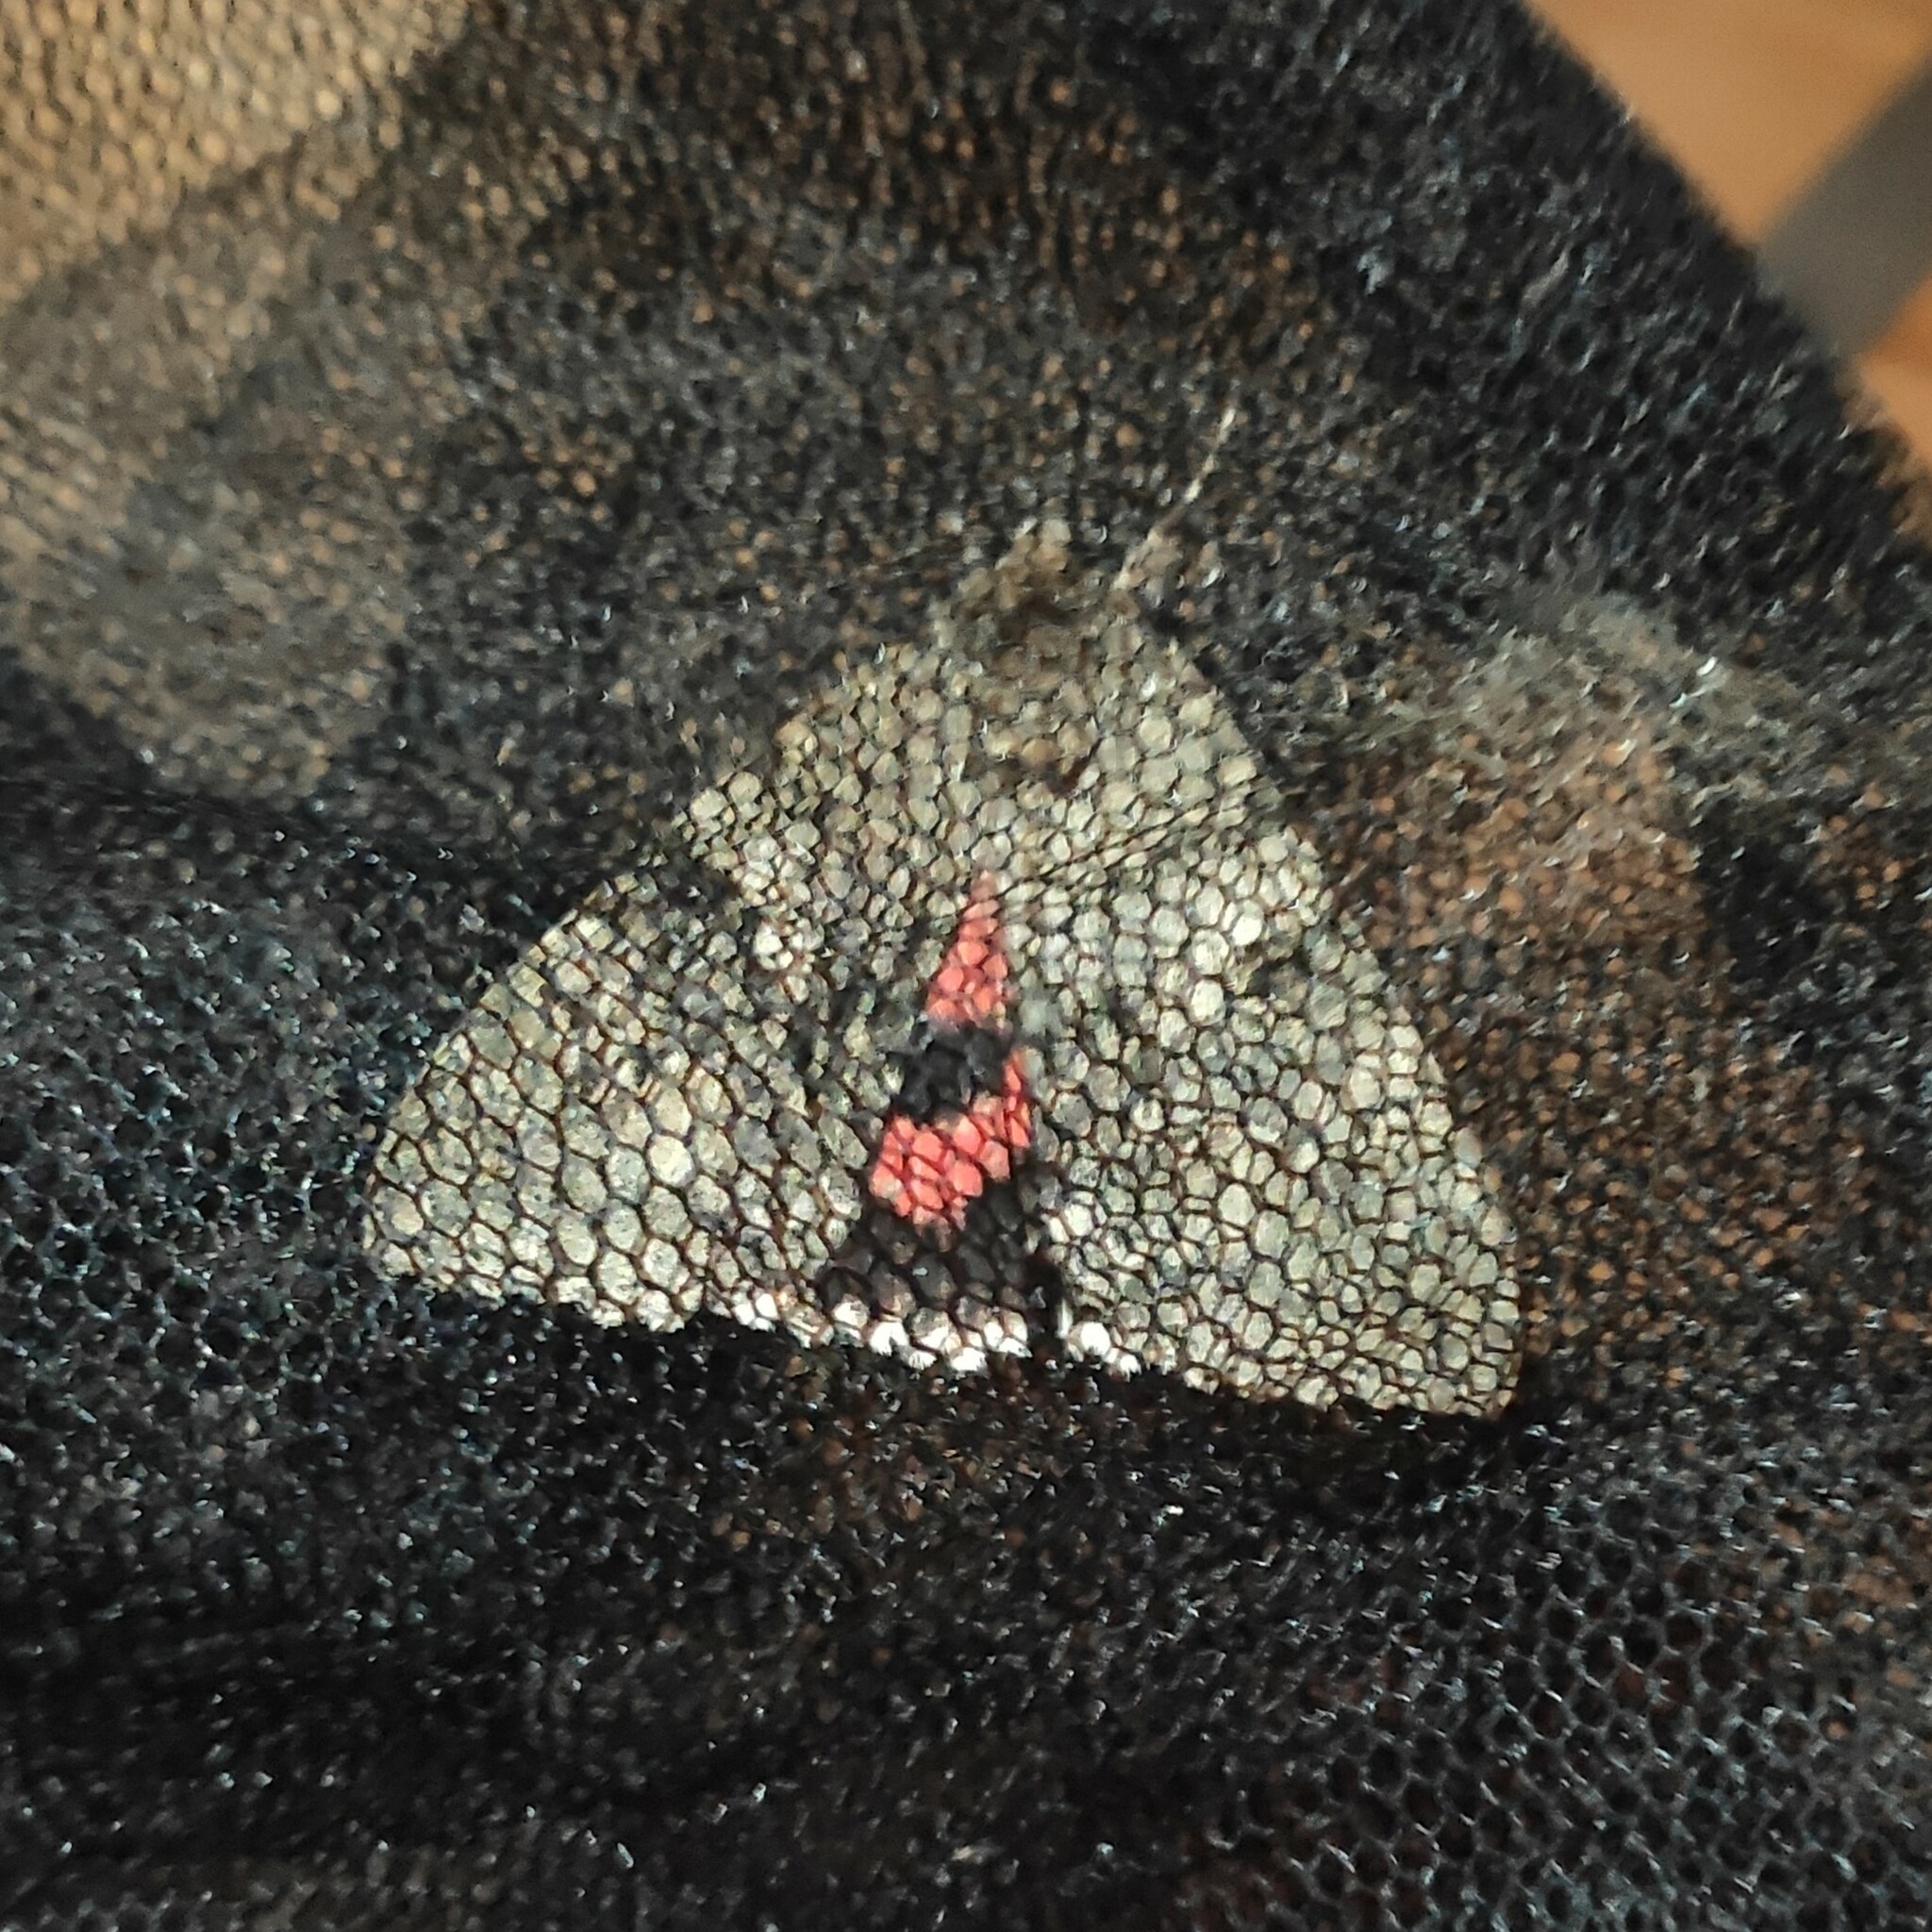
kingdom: Animalia
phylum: Arthropoda
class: Insecta
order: Lepidoptera
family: Erebidae
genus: Catocala
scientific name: Catocala nupta
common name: Red underwing
